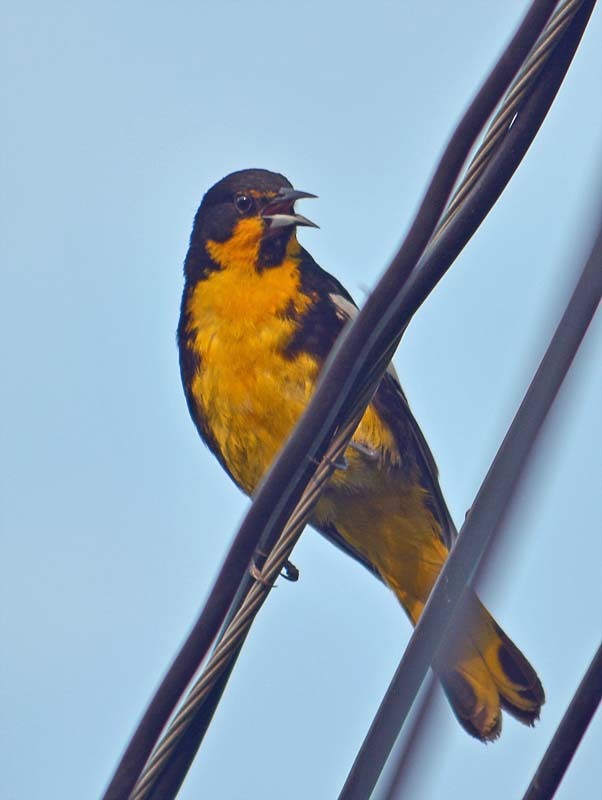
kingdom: Animalia
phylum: Chordata
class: Aves
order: Passeriformes
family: Icteridae
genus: Icterus
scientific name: Icterus abeillei
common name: Black-backed oriole
